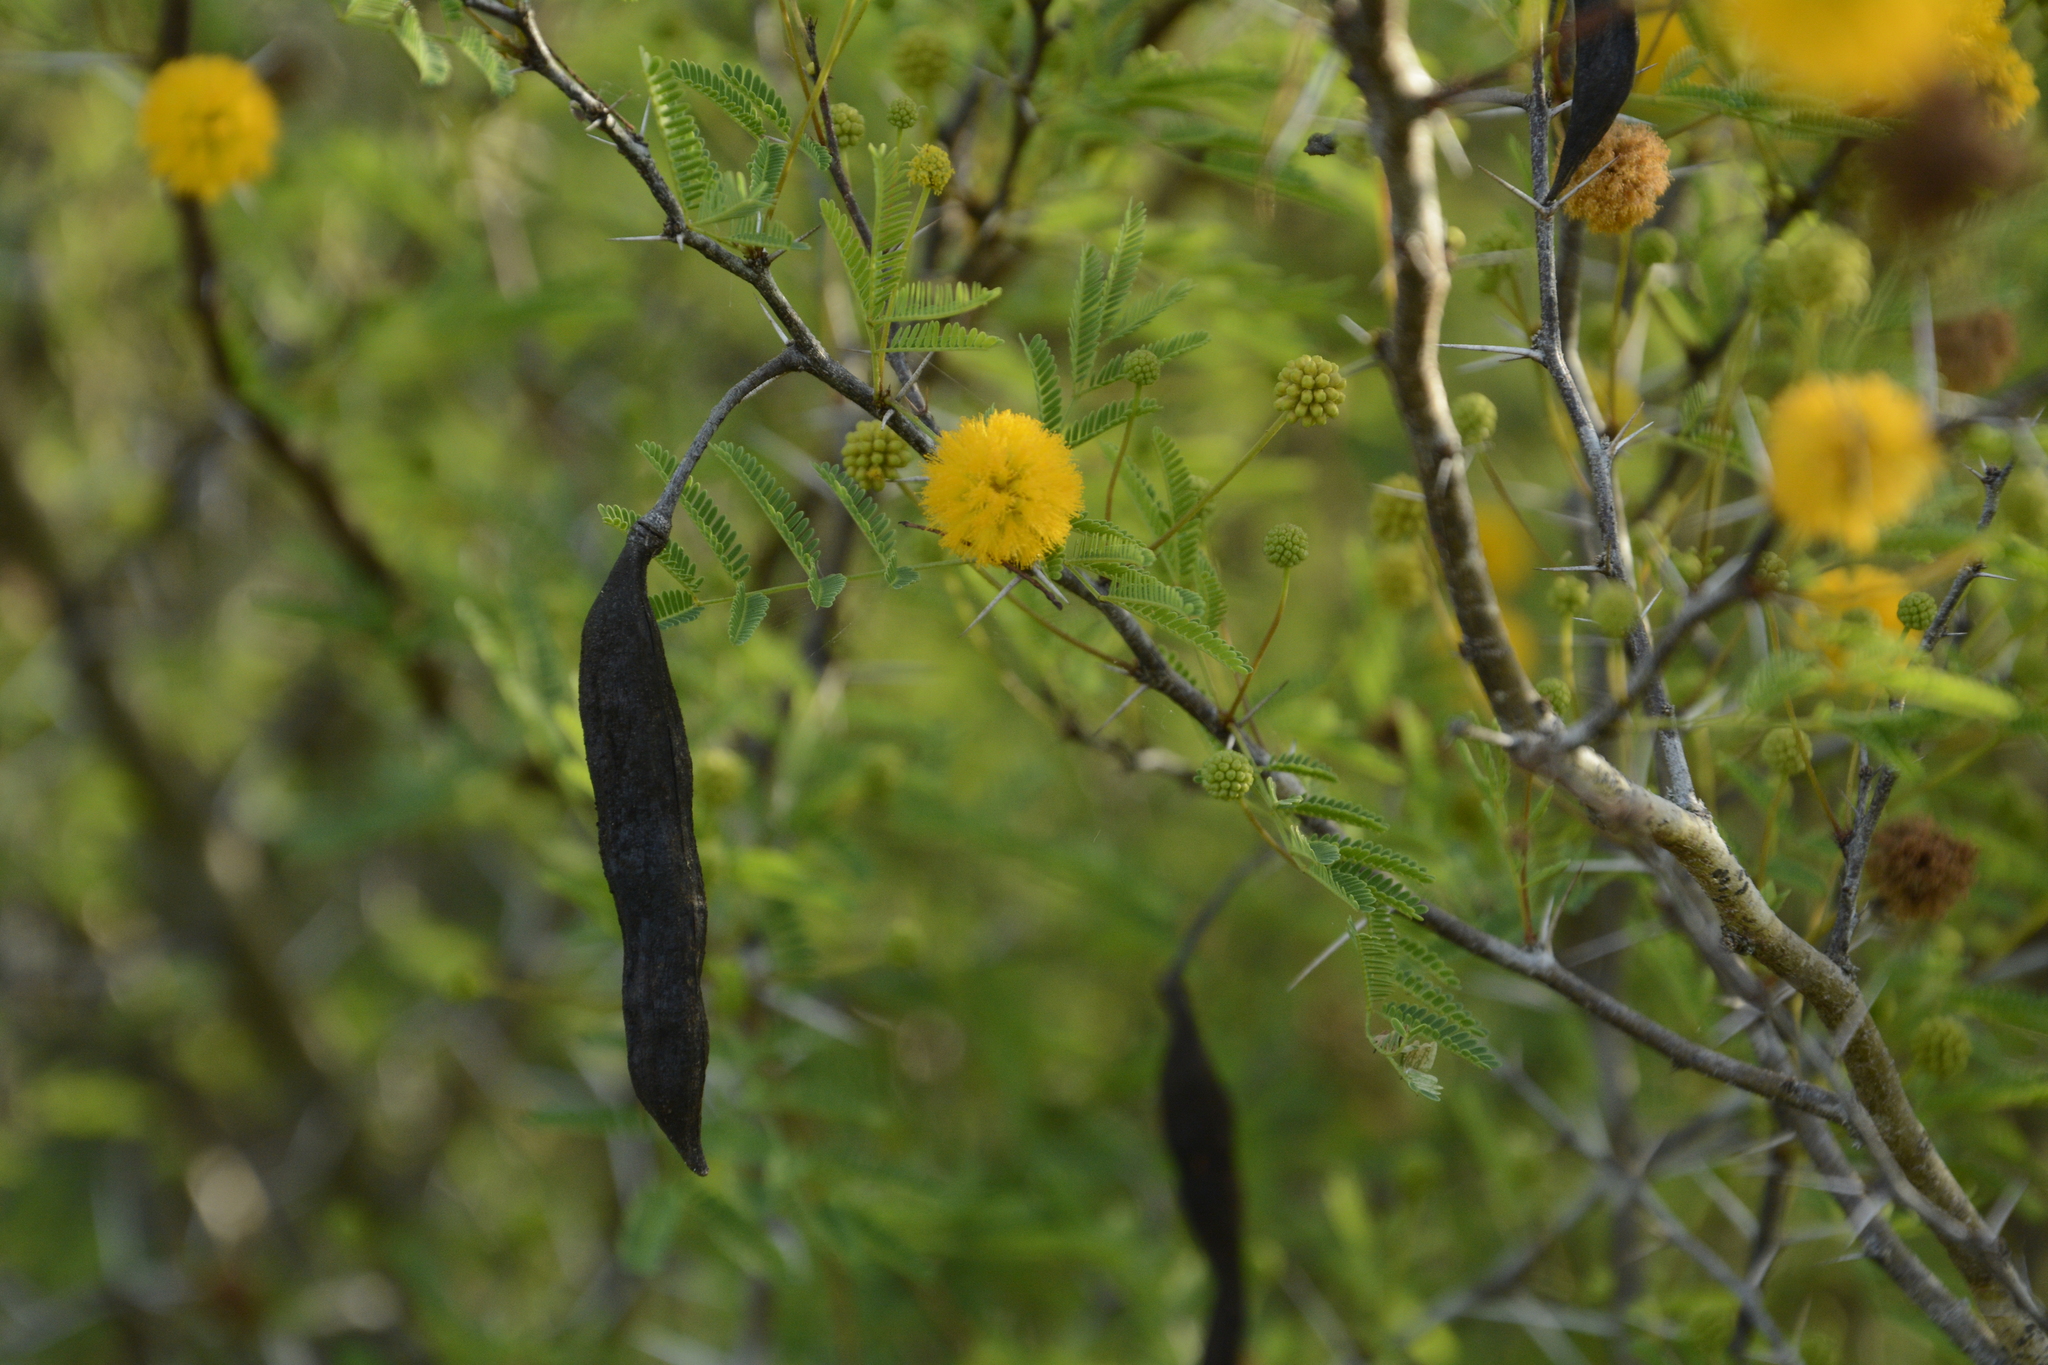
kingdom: Plantae
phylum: Tracheophyta
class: Magnoliopsida
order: Fabales
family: Fabaceae
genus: Vachellia
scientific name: Vachellia farnesiana
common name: Sweet acacia
